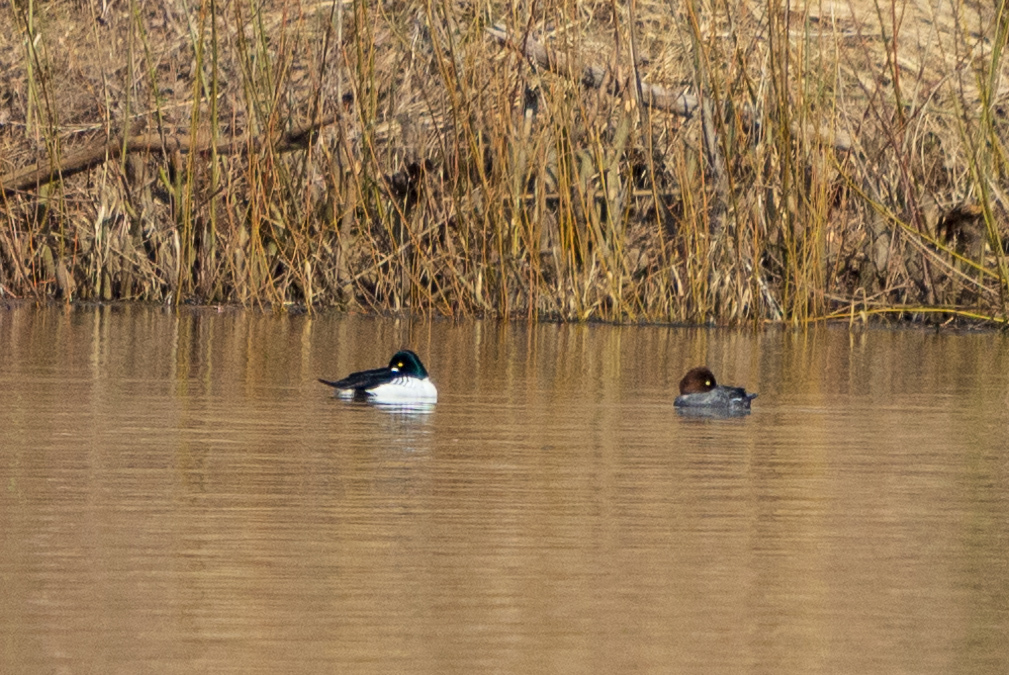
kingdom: Animalia
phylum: Chordata
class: Aves
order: Anseriformes
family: Anatidae
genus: Bucephala
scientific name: Bucephala clangula
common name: Common goldeneye
